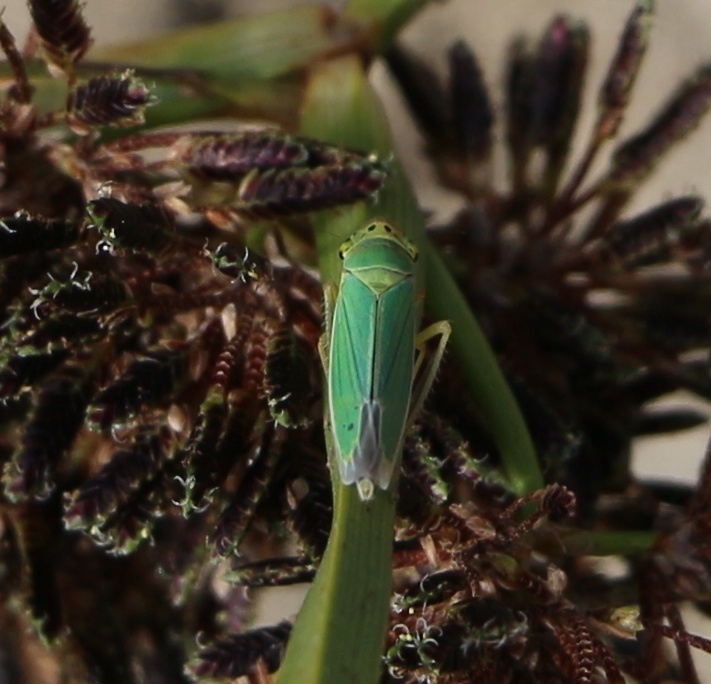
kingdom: Animalia
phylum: Arthropoda
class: Insecta
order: Hemiptera
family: Cicadellidae
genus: Cicadella
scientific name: Cicadella viridis
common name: Leafhopper
